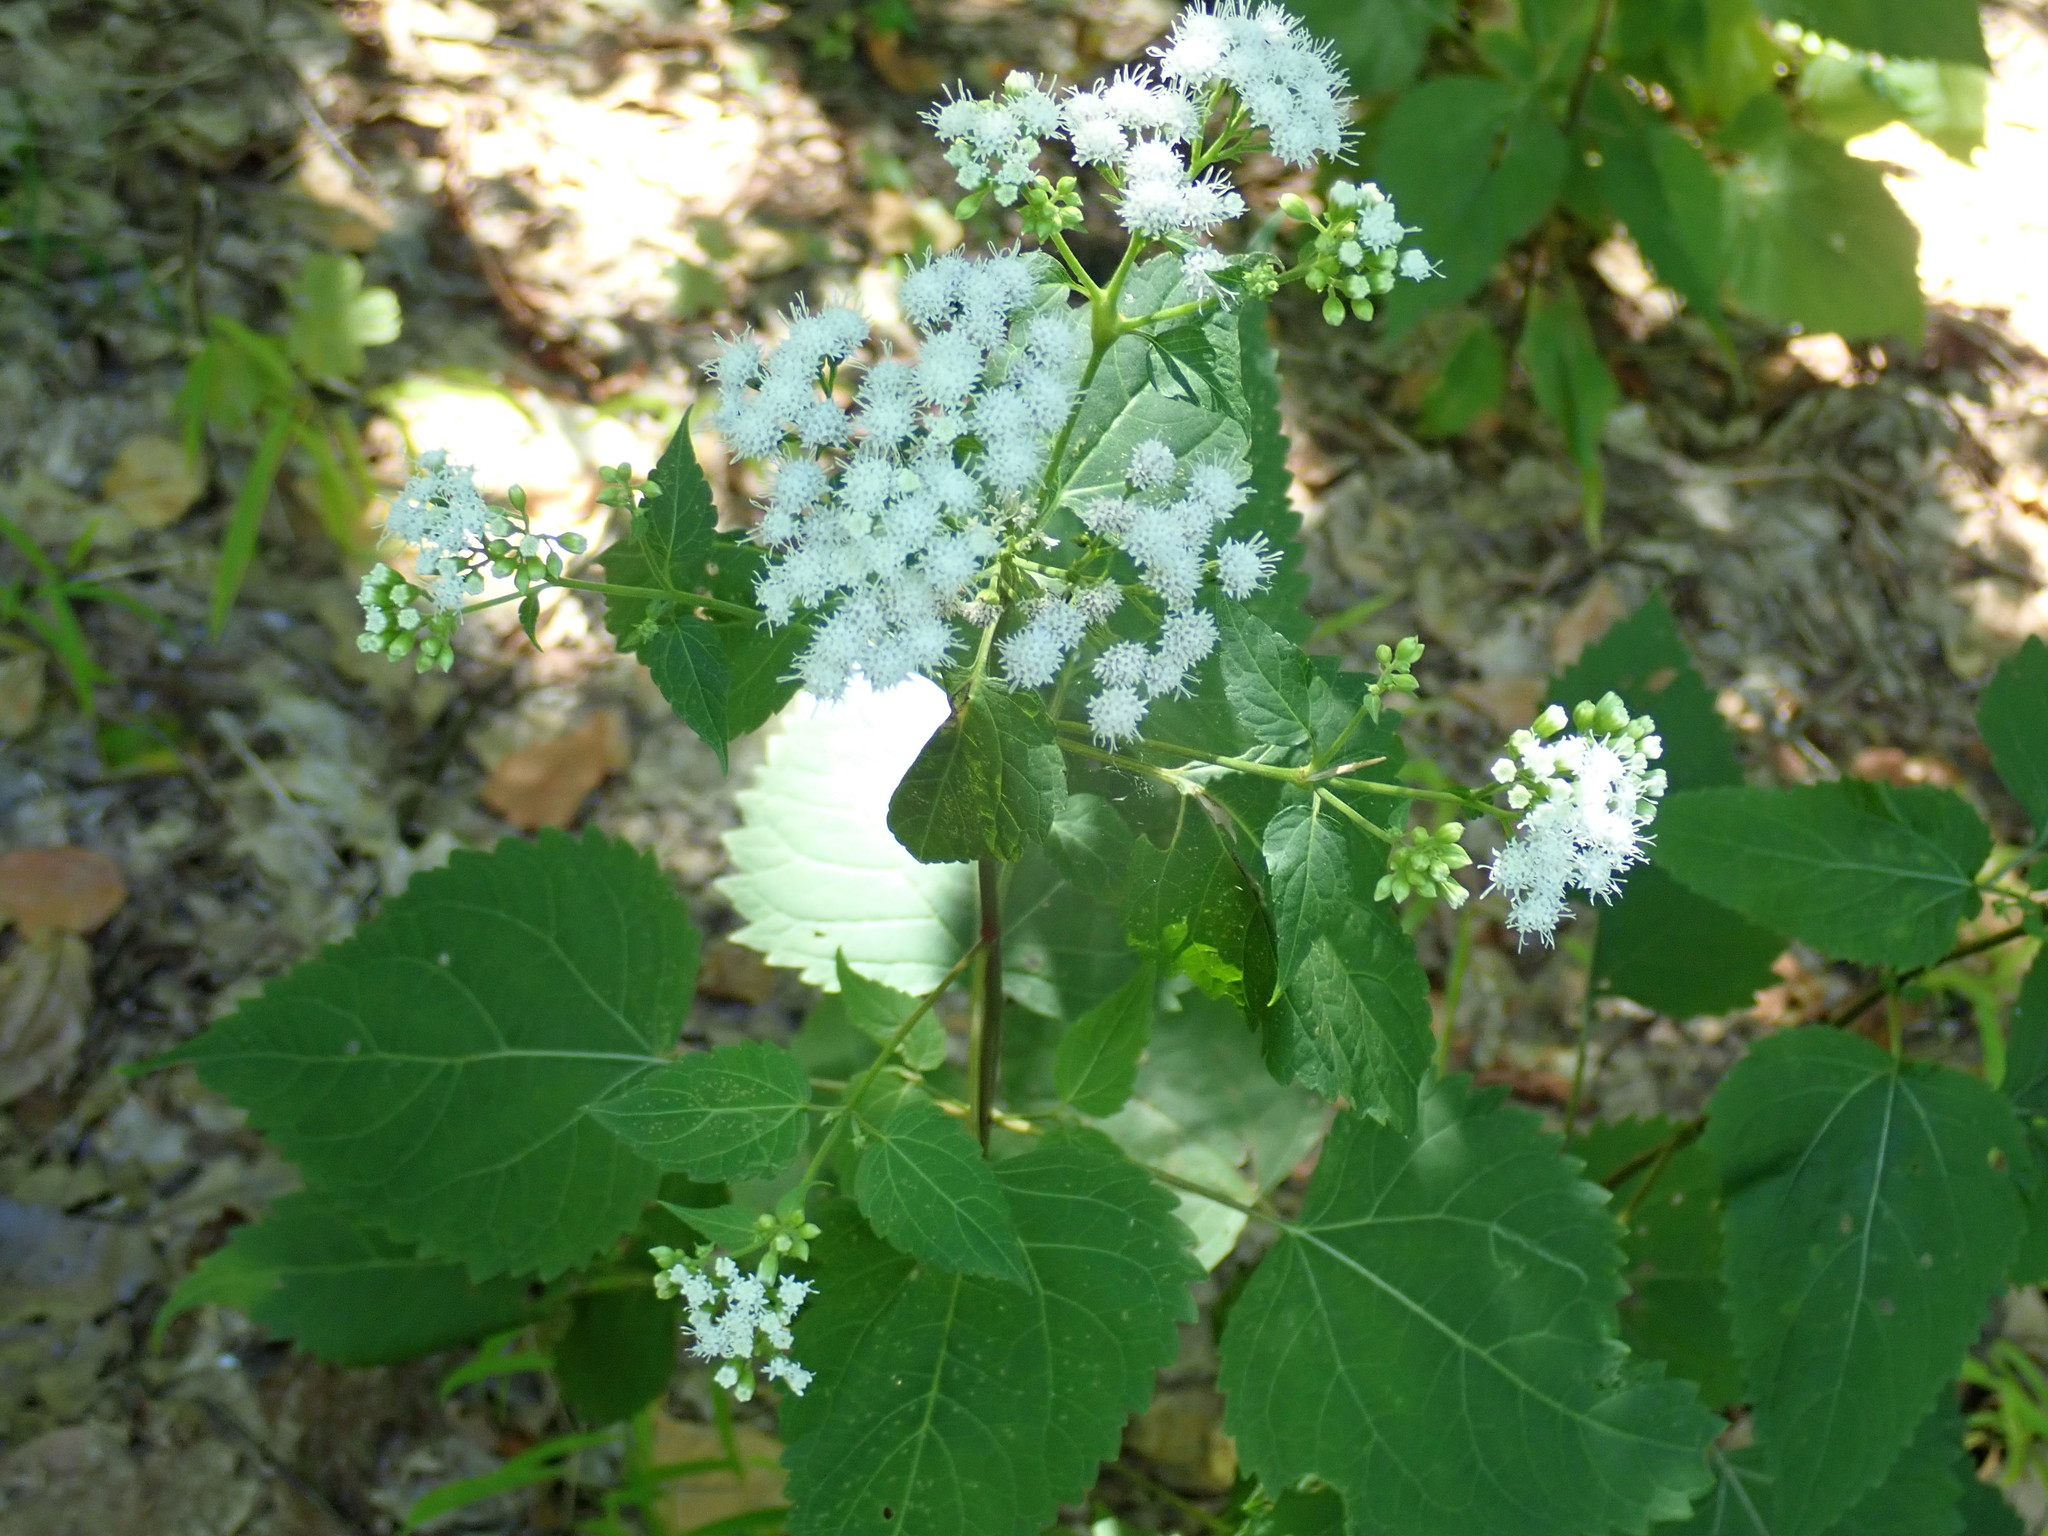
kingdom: Plantae
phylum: Tracheophyta
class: Magnoliopsida
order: Asterales
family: Asteraceae
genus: Ageratina
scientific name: Ageratina altissima
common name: White snakeroot
